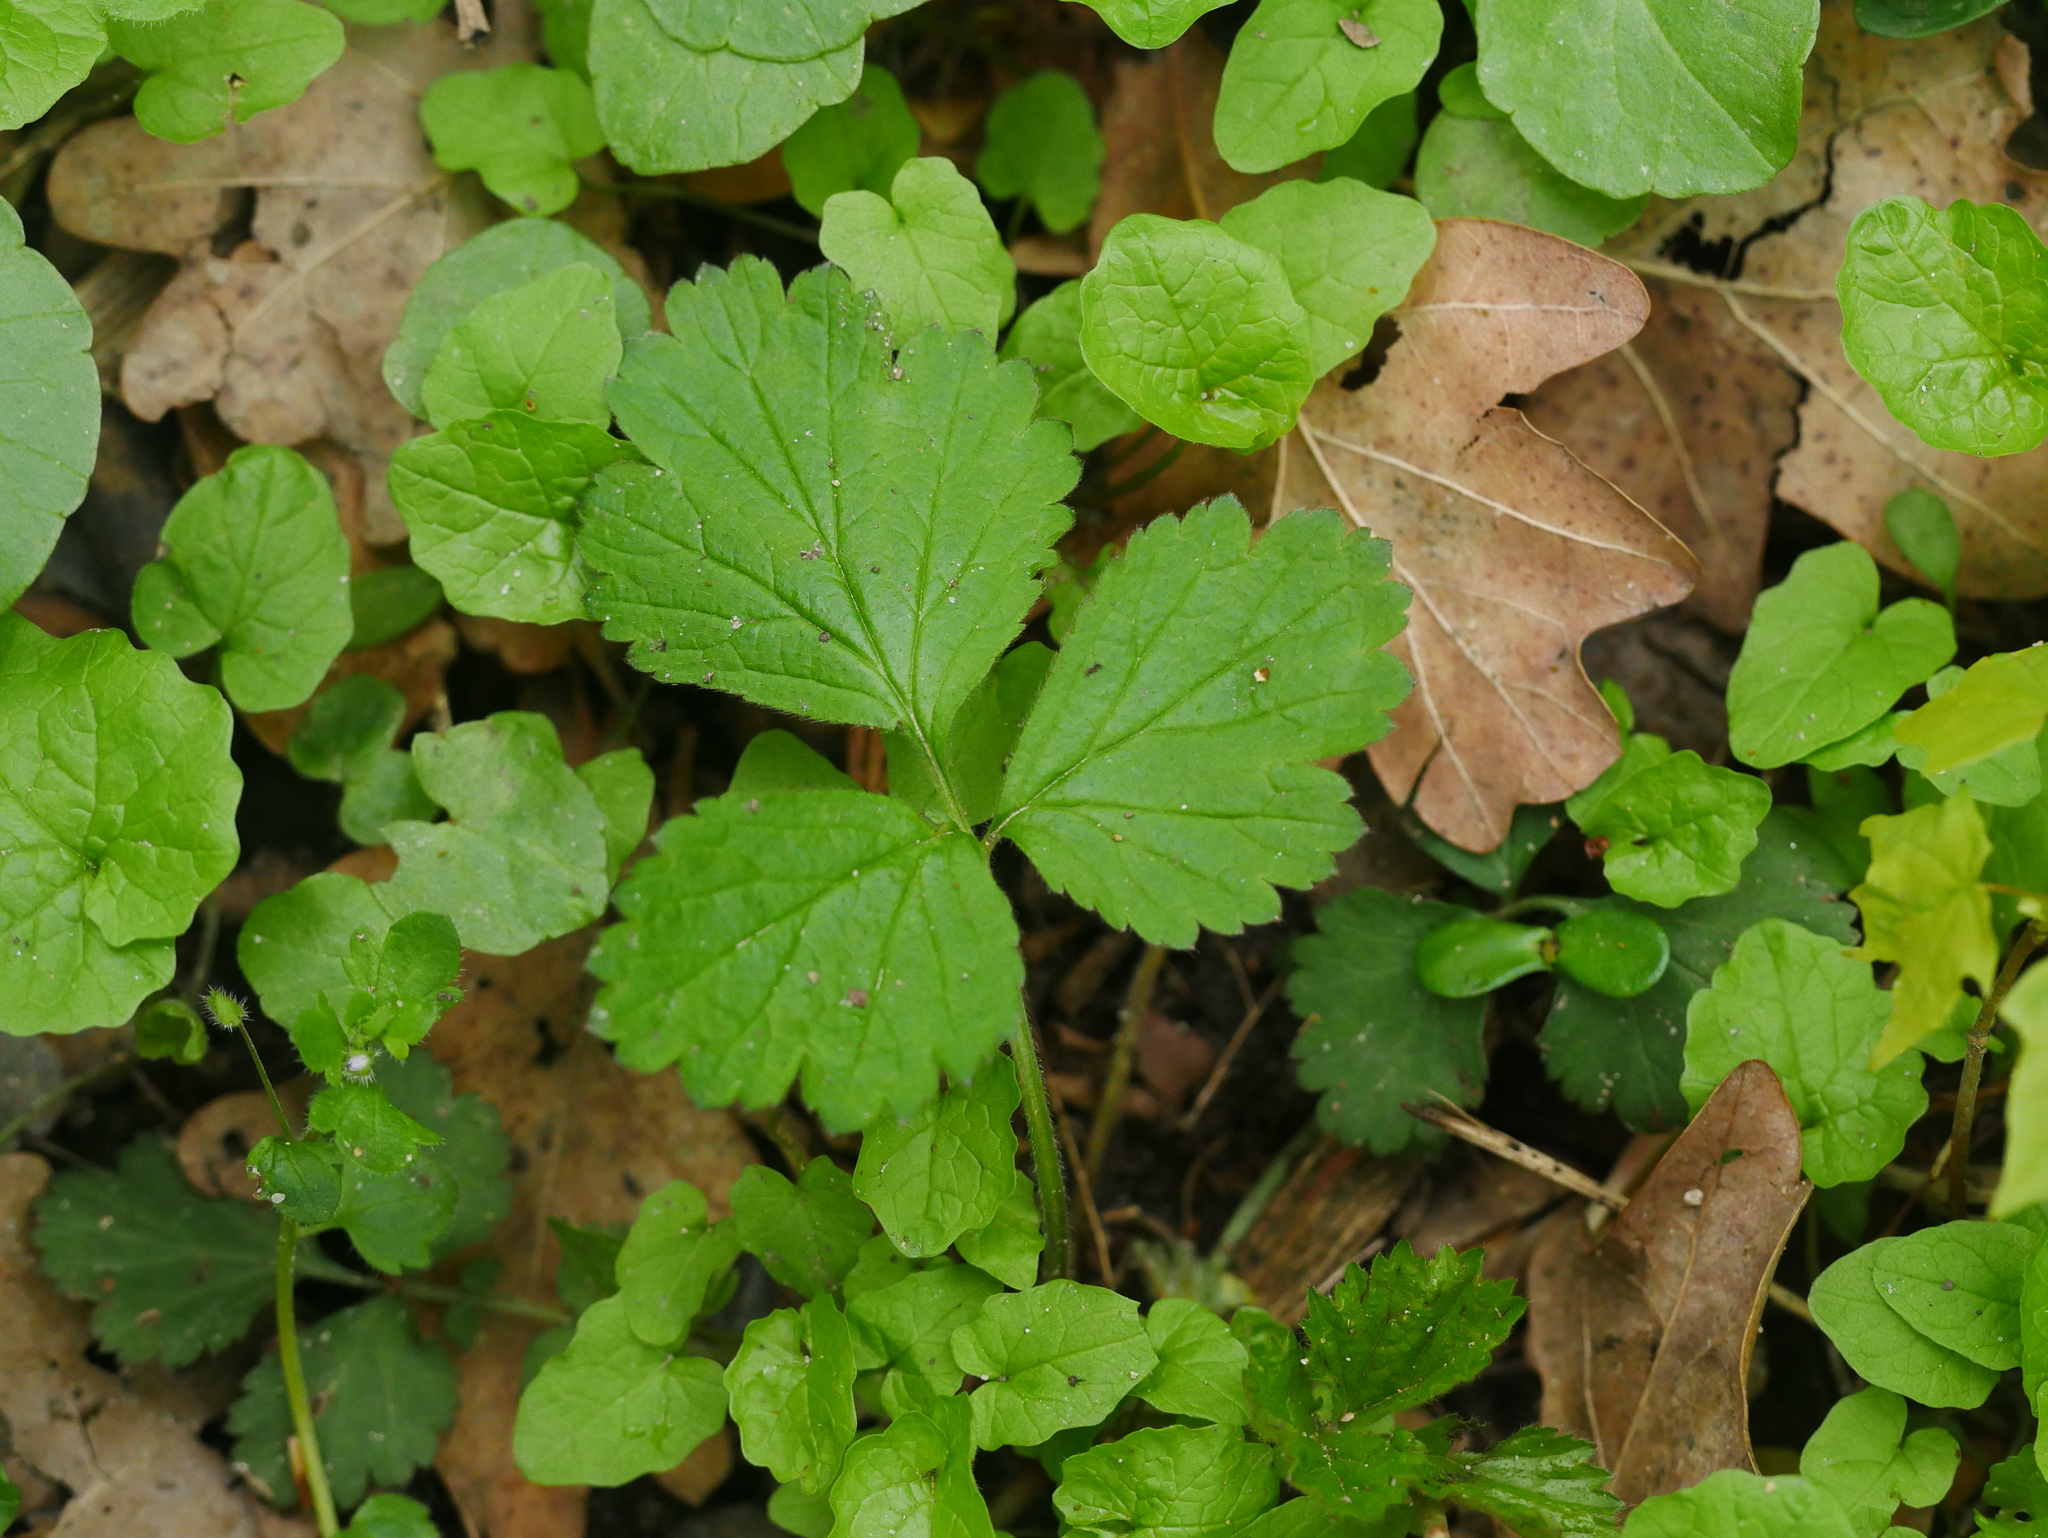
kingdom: Plantae
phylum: Tracheophyta
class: Magnoliopsida
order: Rosales
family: Rosaceae
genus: Geum
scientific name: Geum urbanum
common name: Wood avens
